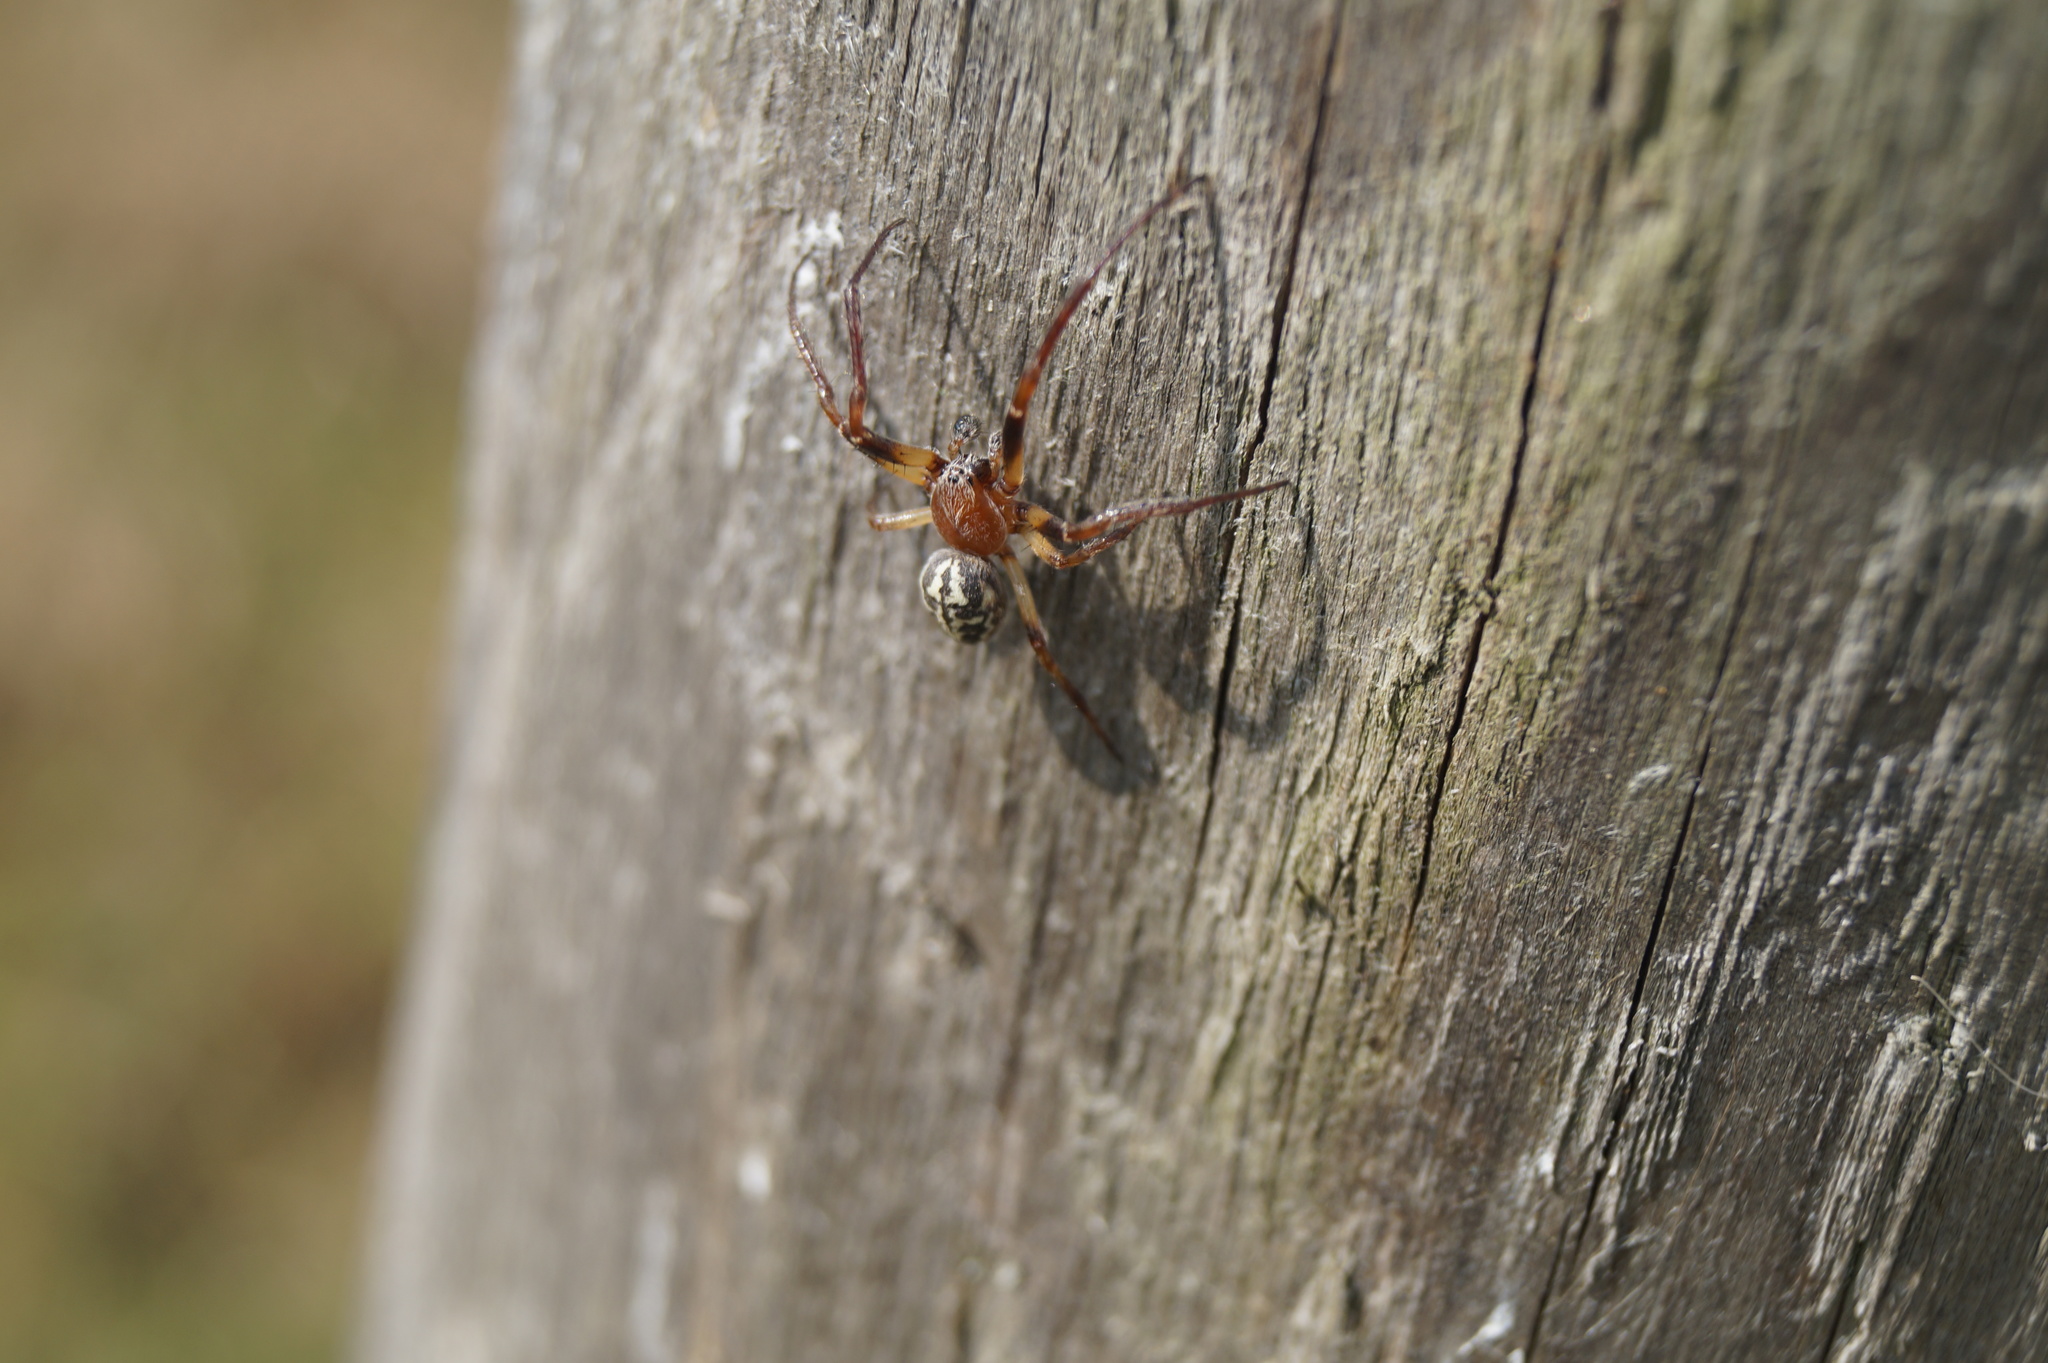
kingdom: Animalia
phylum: Arthropoda
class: Arachnida
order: Araneae
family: Araneidae
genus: Larinioides
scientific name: Larinioides cornutus
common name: Furrow orbweaver
